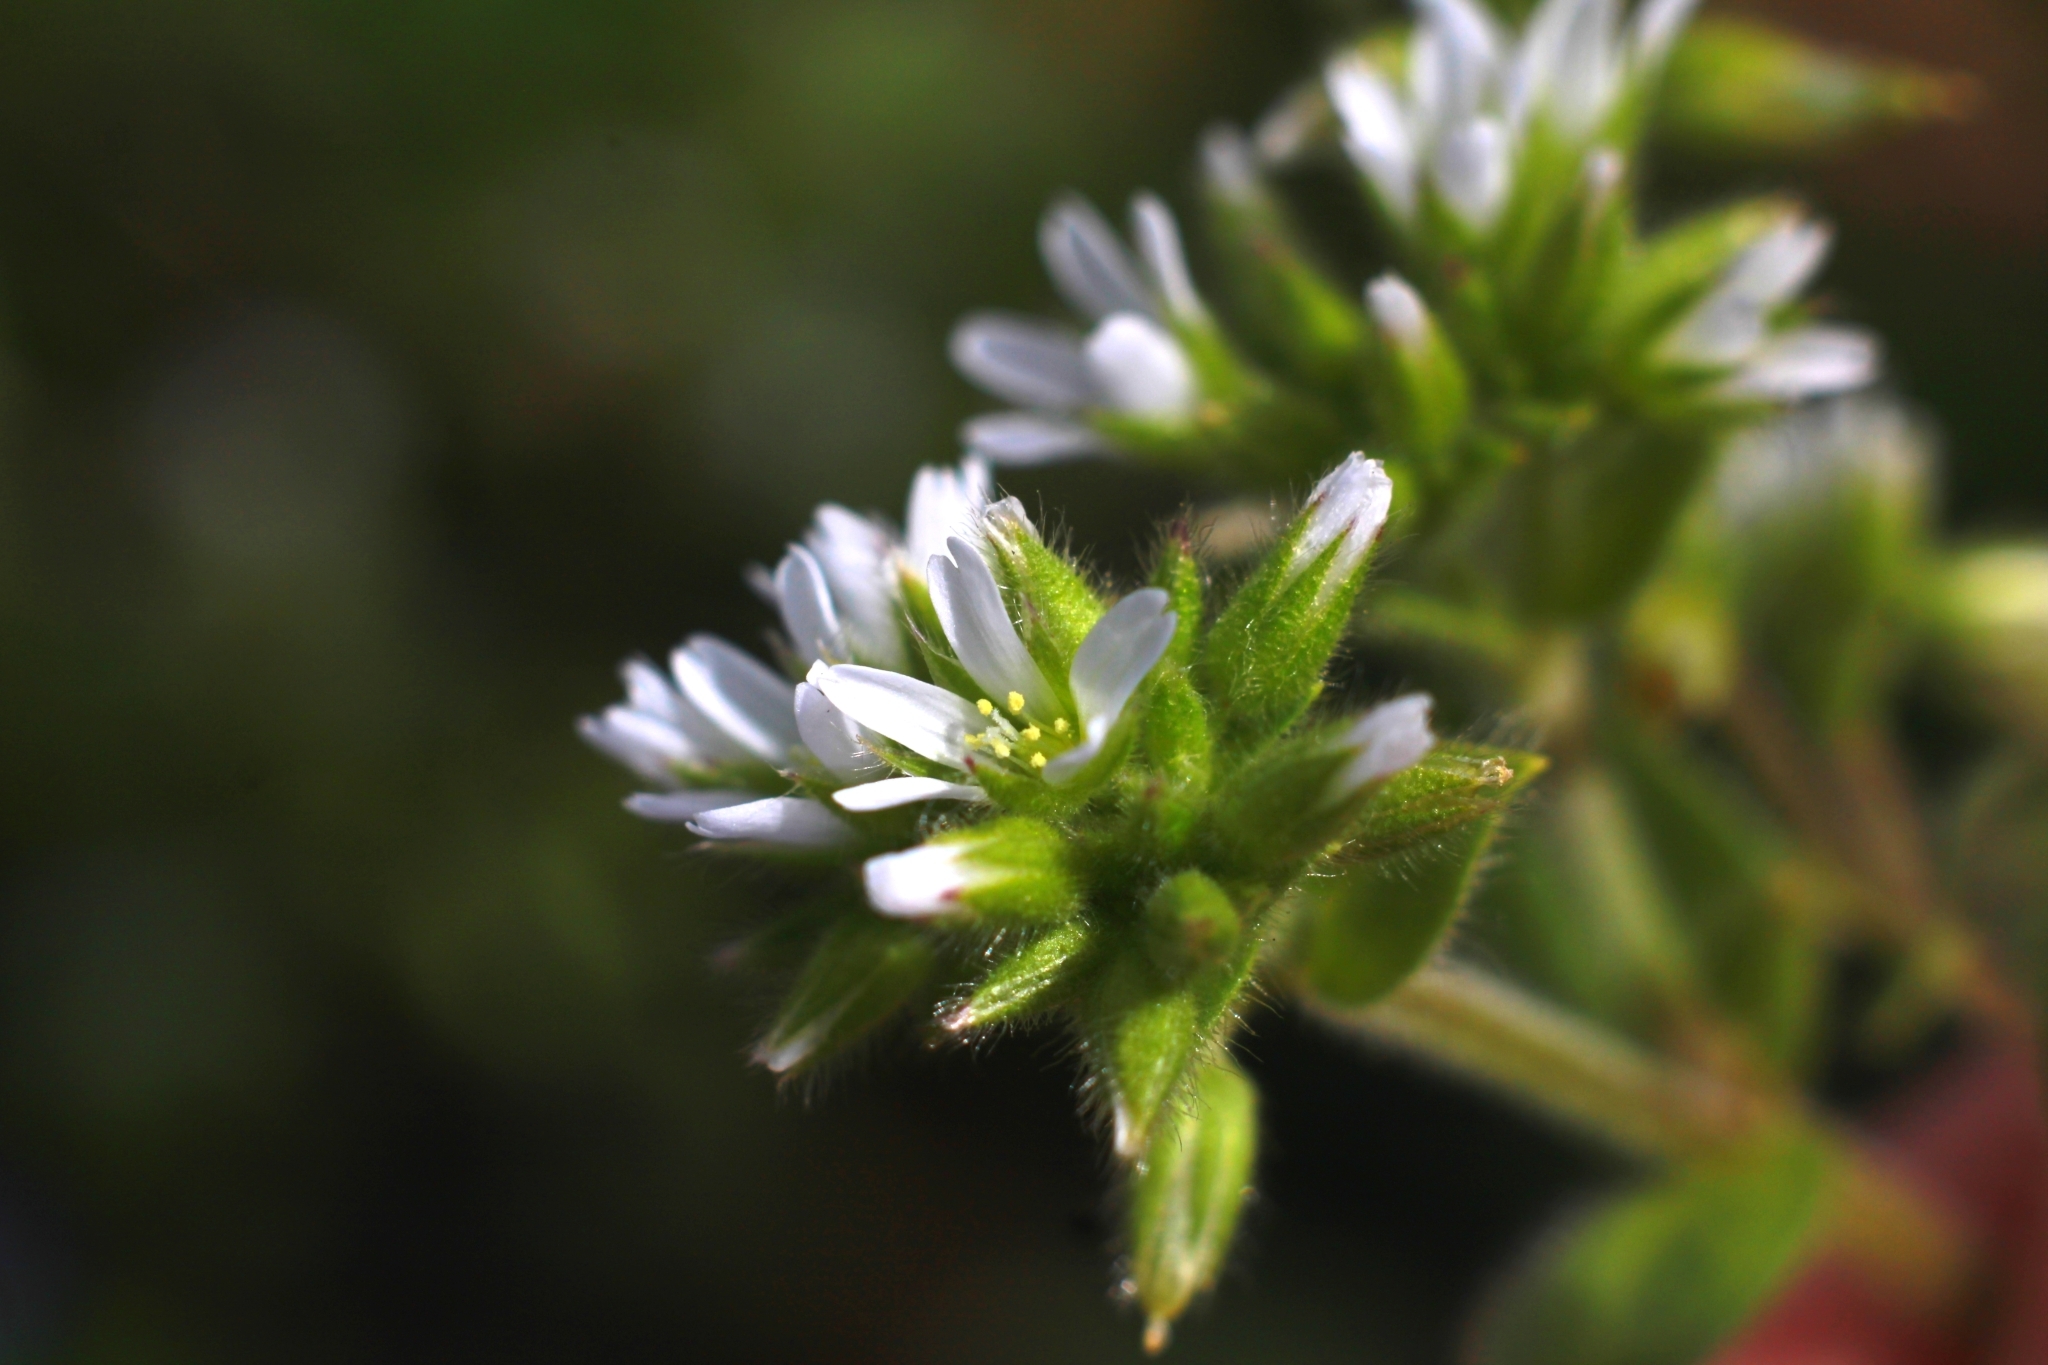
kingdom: Plantae
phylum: Tracheophyta
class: Magnoliopsida
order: Caryophyllales
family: Caryophyllaceae
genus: Cerastium
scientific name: Cerastium glomeratum
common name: Sticky chickweed
